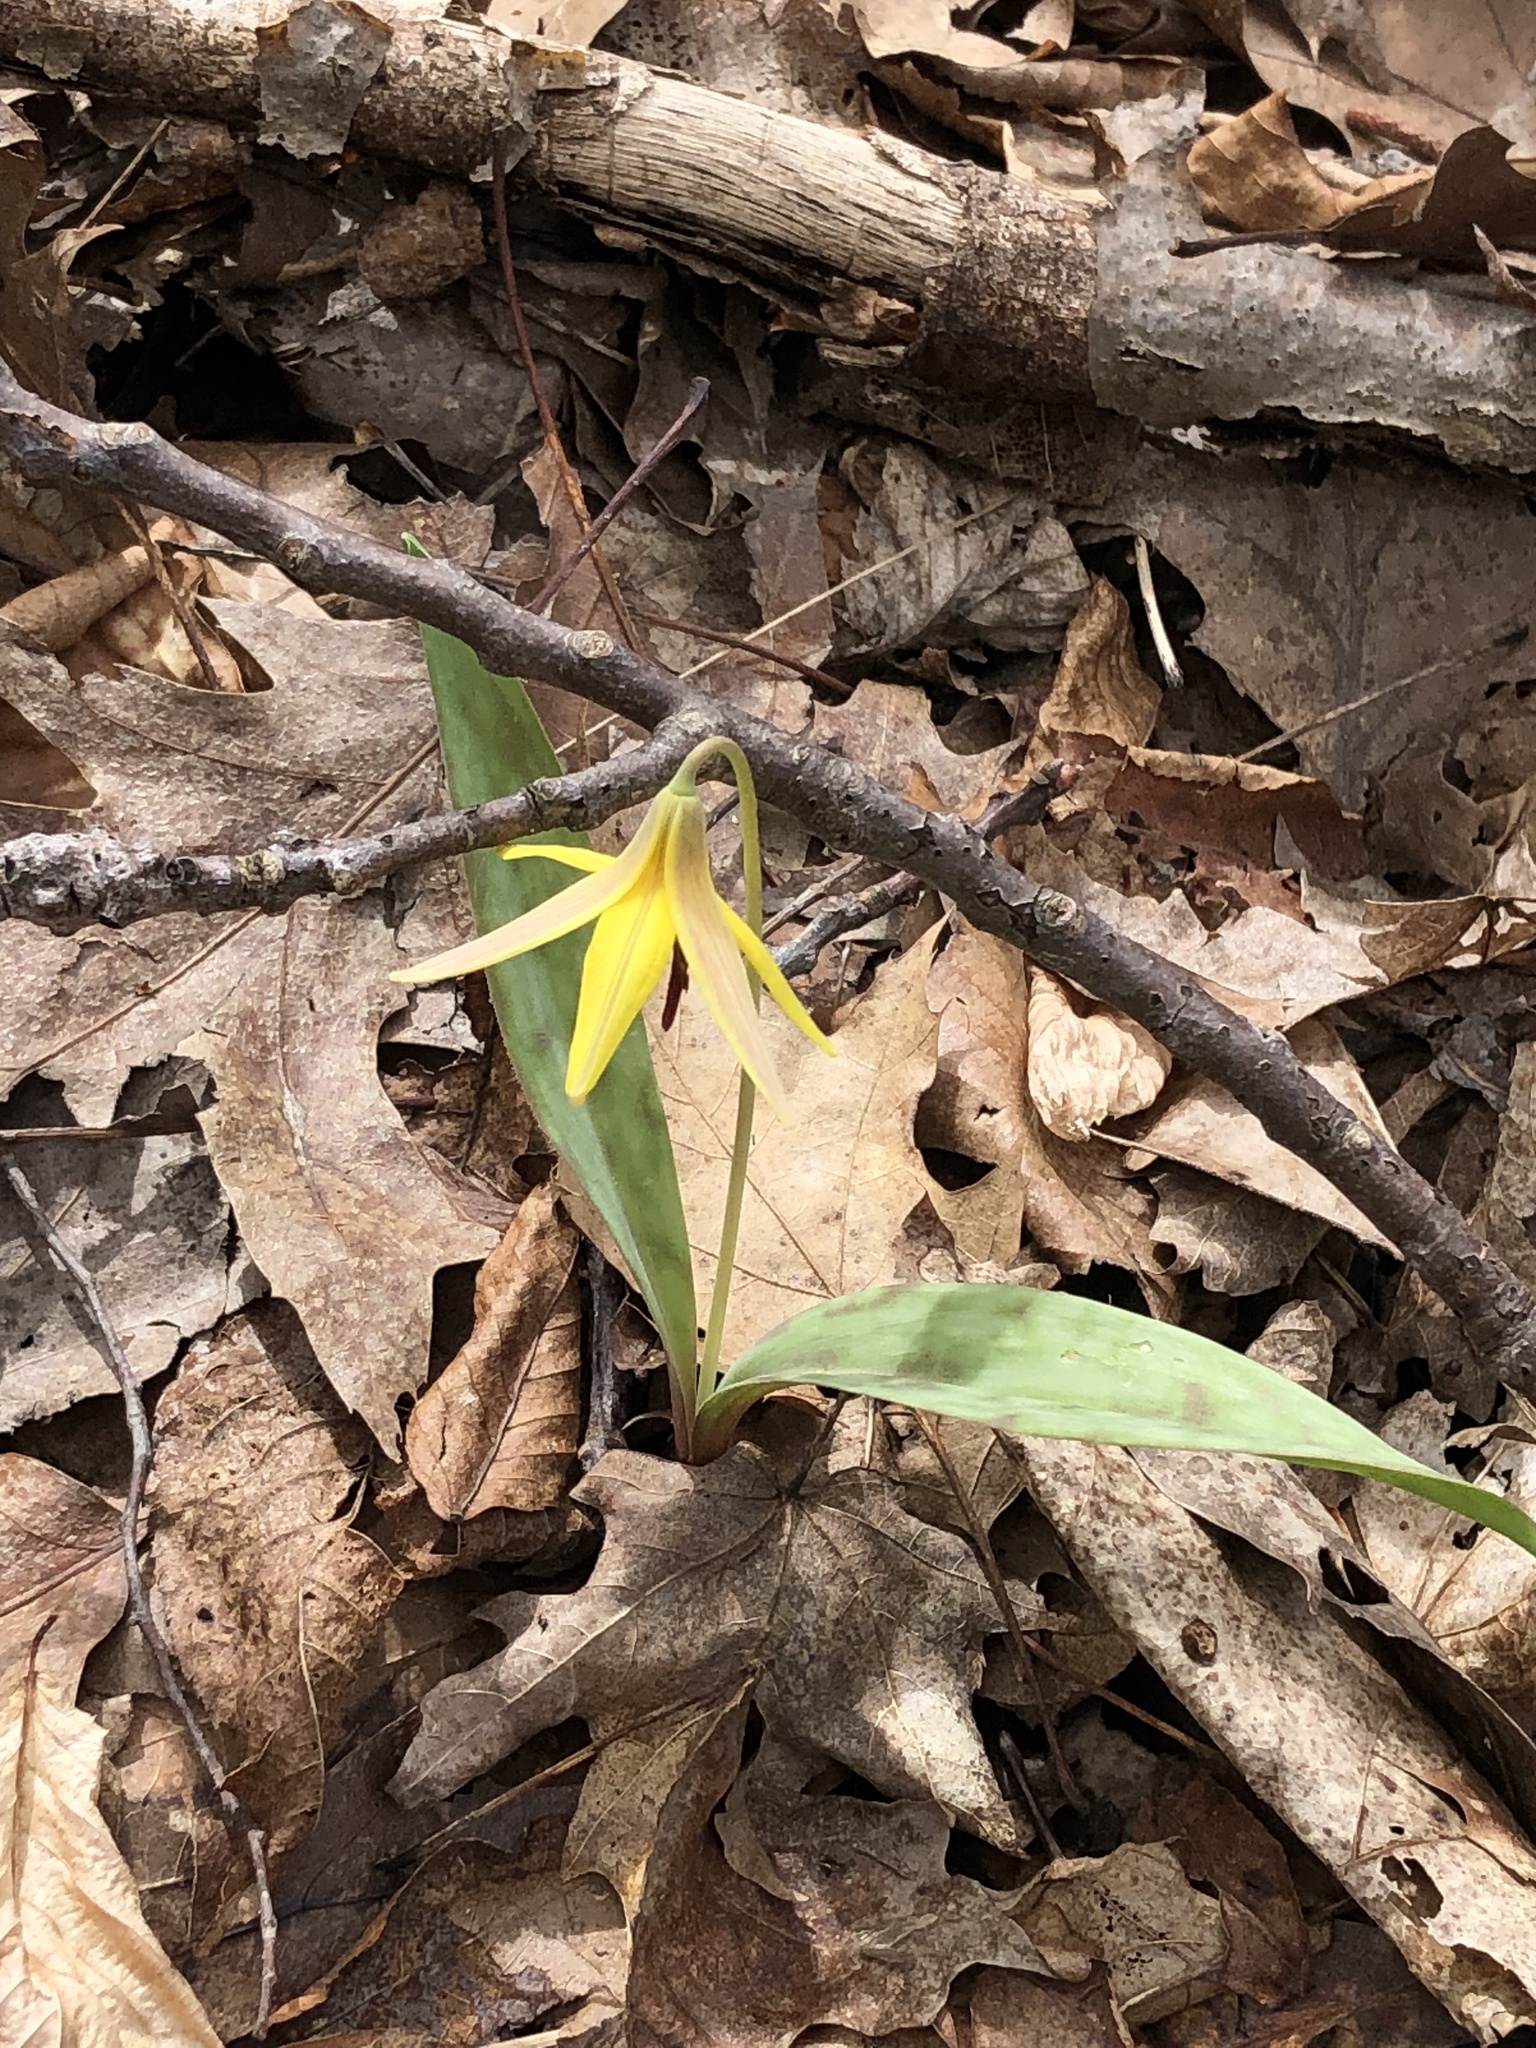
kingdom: Plantae
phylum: Tracheophyta
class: Liliopsida
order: Liliales
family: Liliaceae
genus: Erythronium
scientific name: Erythronium americanum
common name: Yellow adder's-tongue
